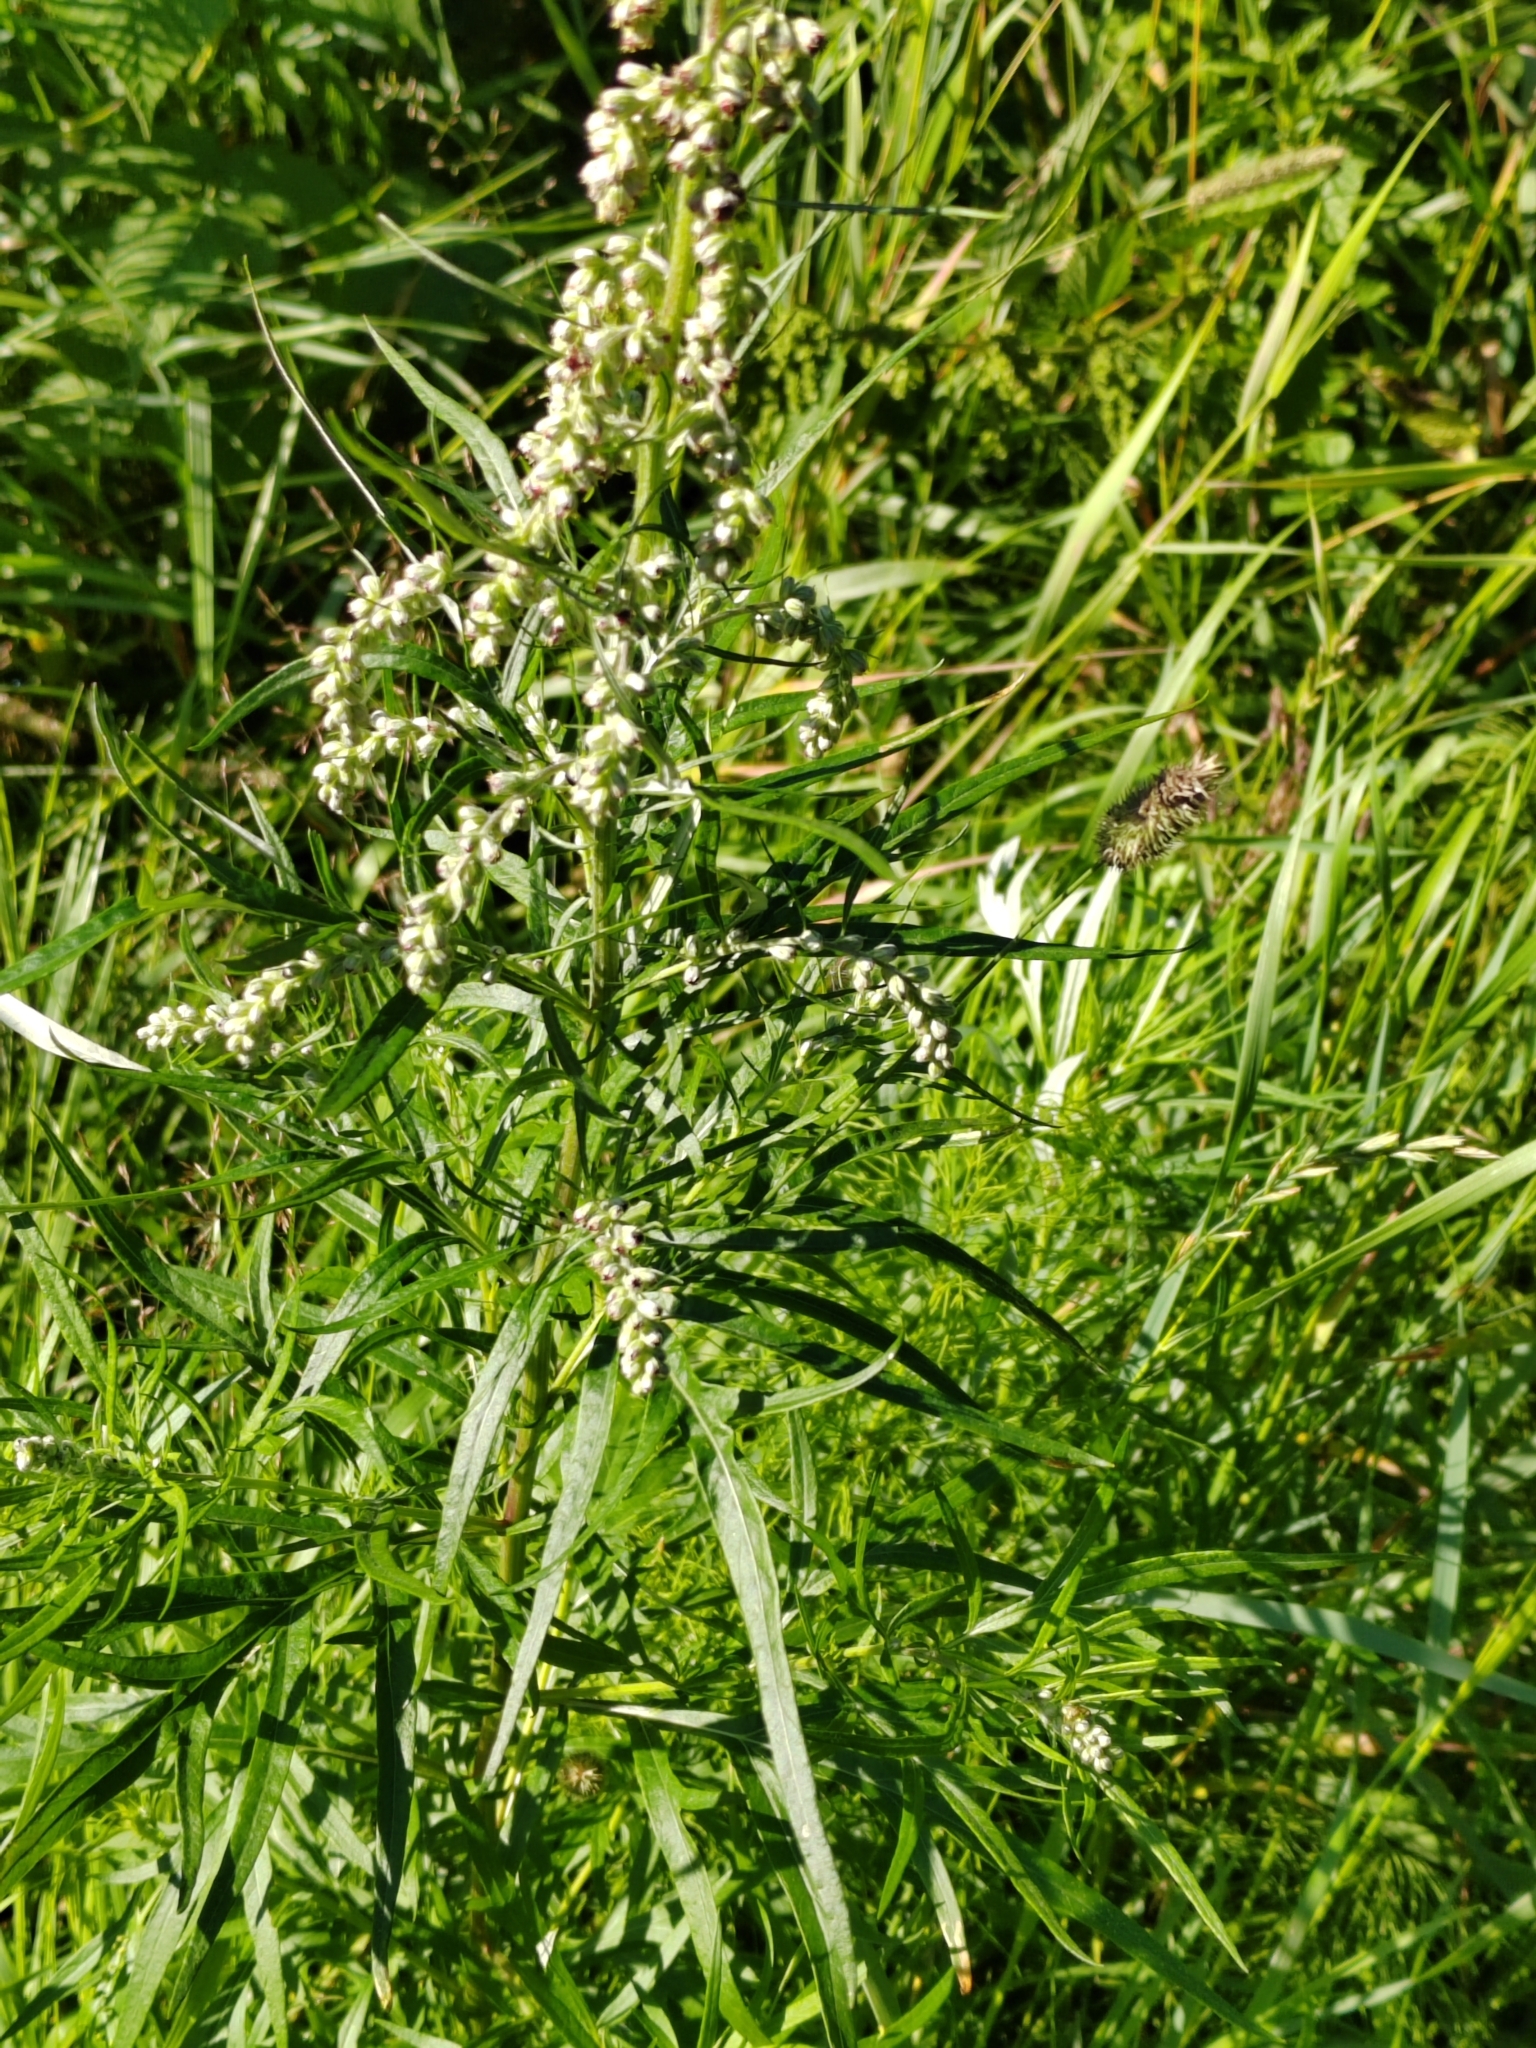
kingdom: Plantae
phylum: Tracheophyta
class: Magnoliopsida
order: Asterales
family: Asteraceae
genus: Artemisia
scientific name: Artemisia vulgaris
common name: Mugwort
